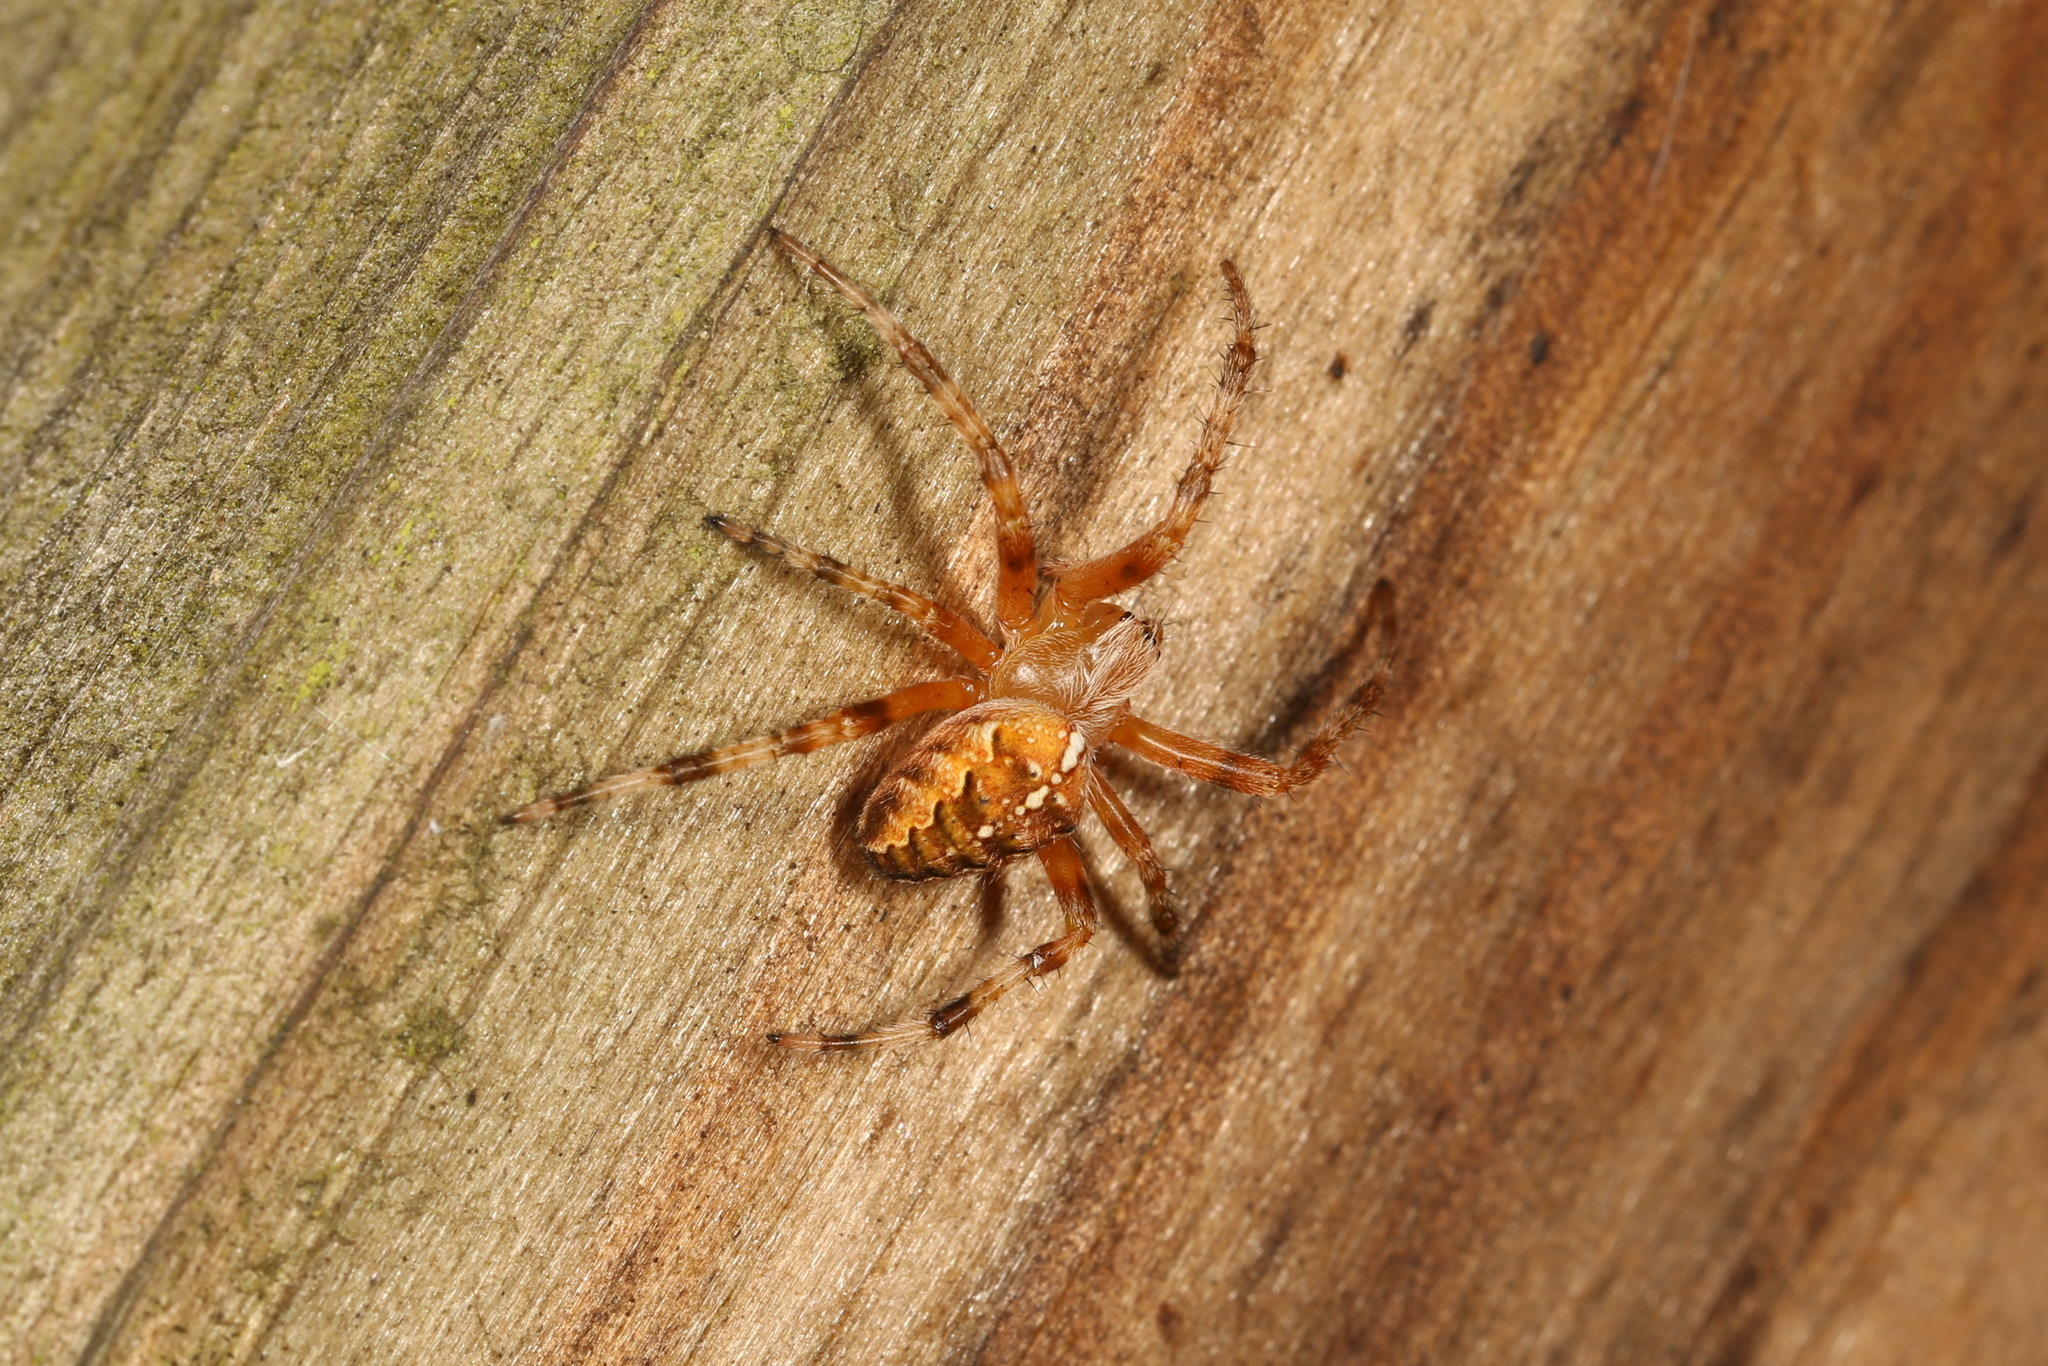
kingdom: Animalia
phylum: Arthropoda
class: Arachnida
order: Araneae
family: Araneidae
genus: Araneus
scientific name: Araneus diadematus
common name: Cross orbweaver
